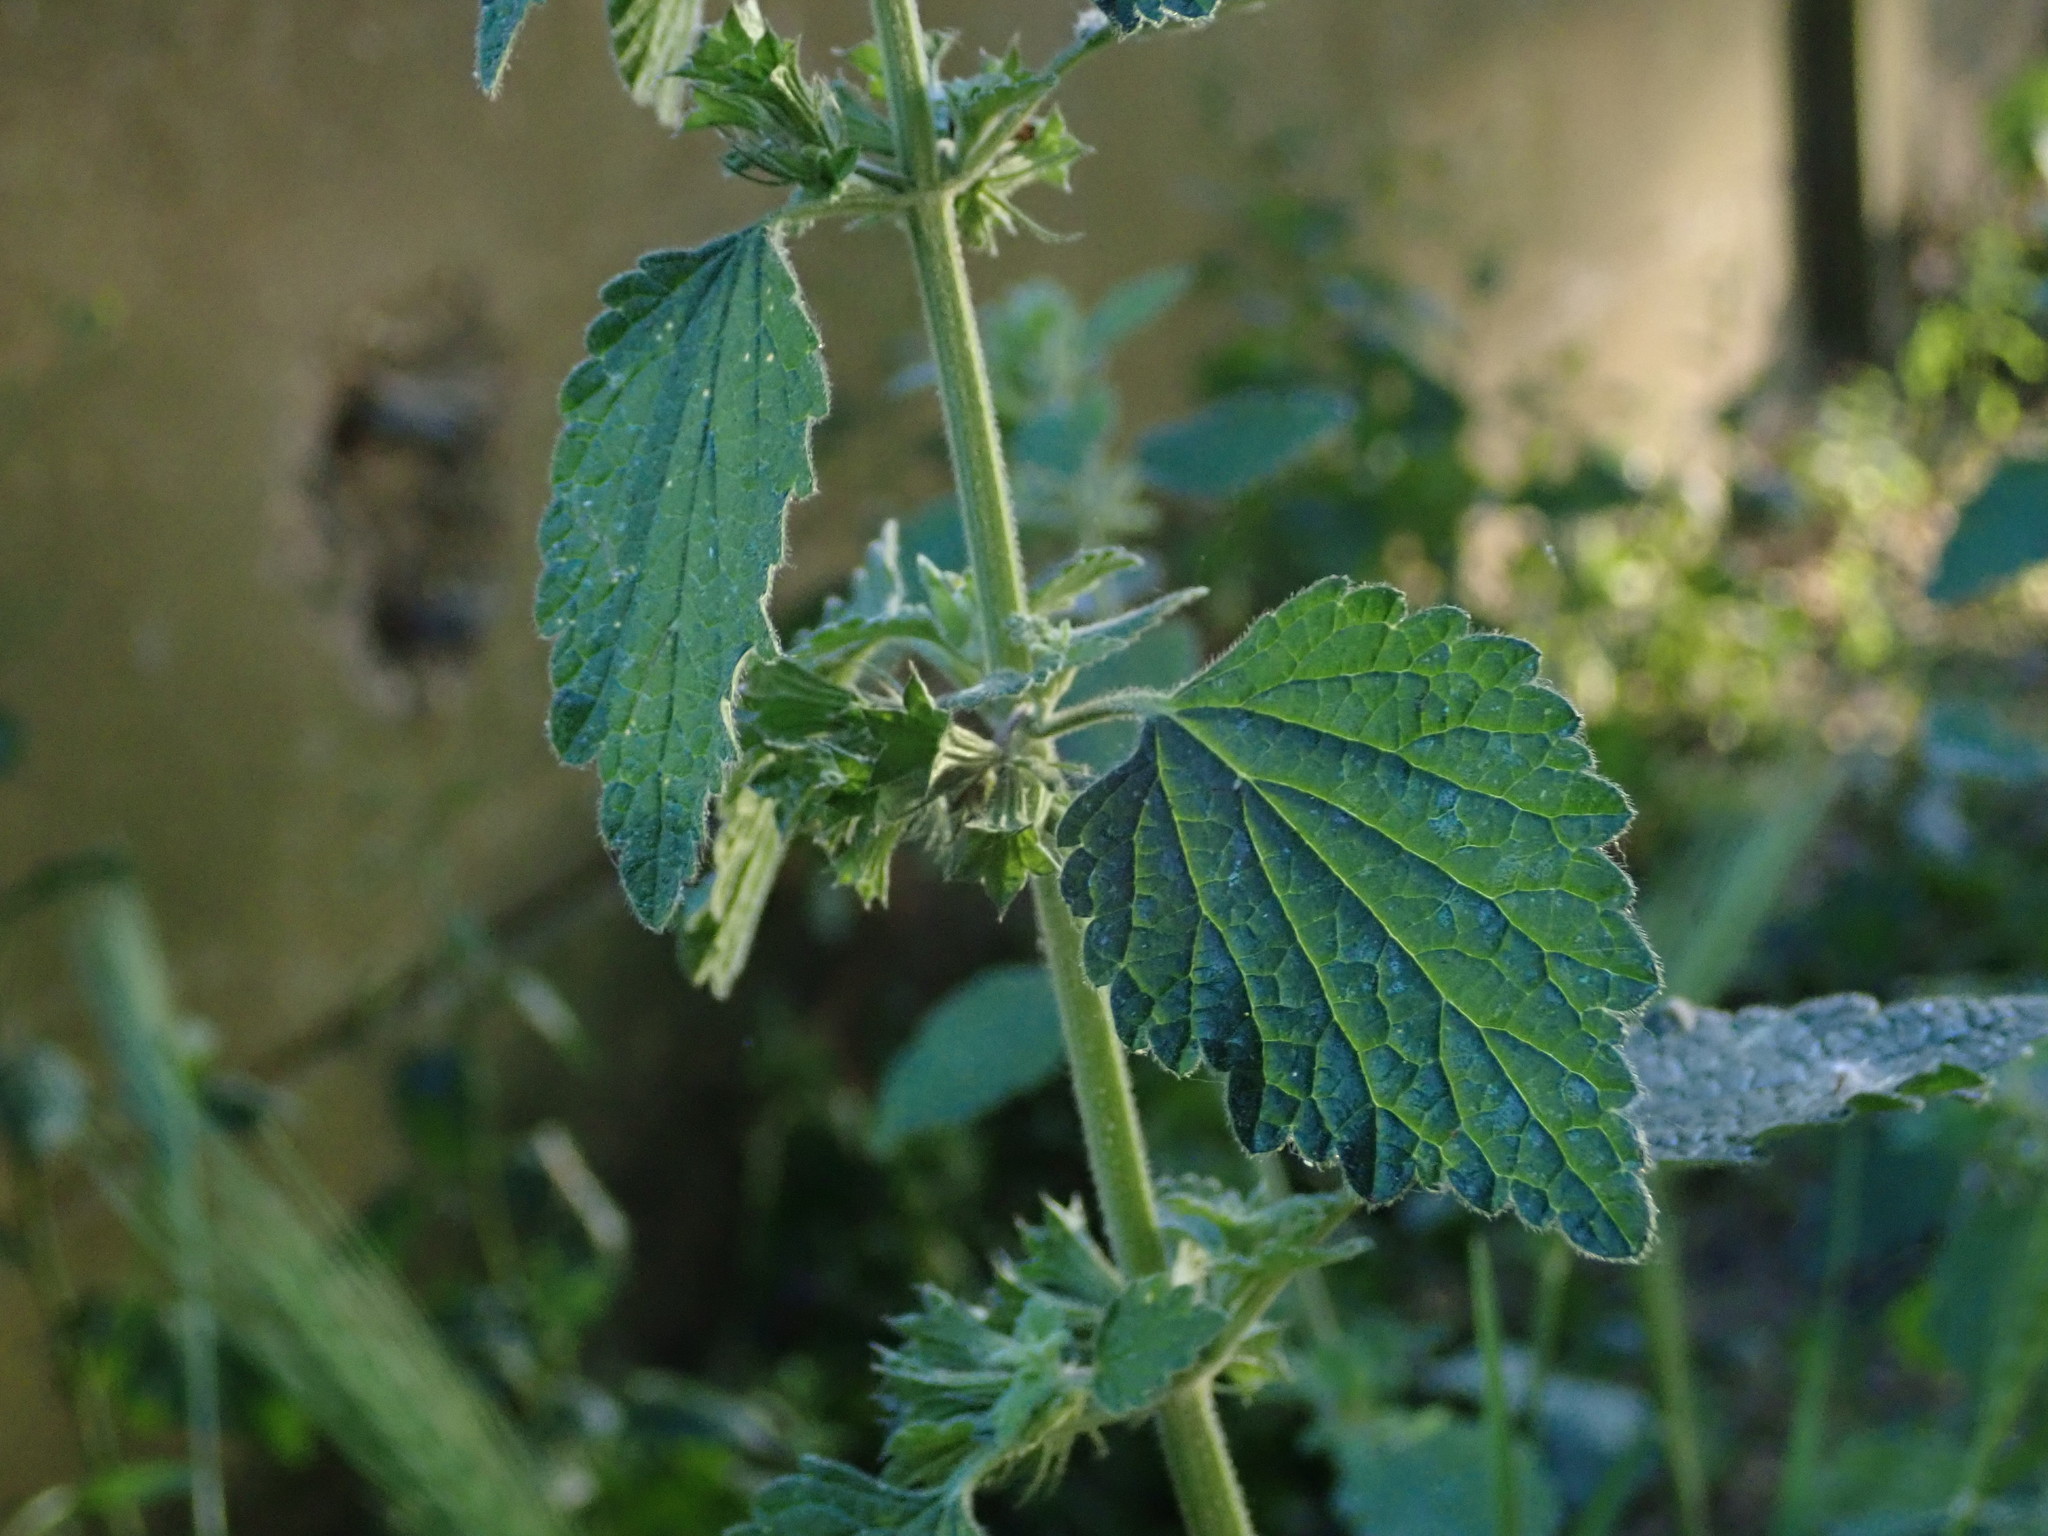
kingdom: Plantae
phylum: Tracheophyta
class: Magnoliopsida
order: Lamiales
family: Lamiaceae
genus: Ballota
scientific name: Ballota nigra
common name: Black horehound
